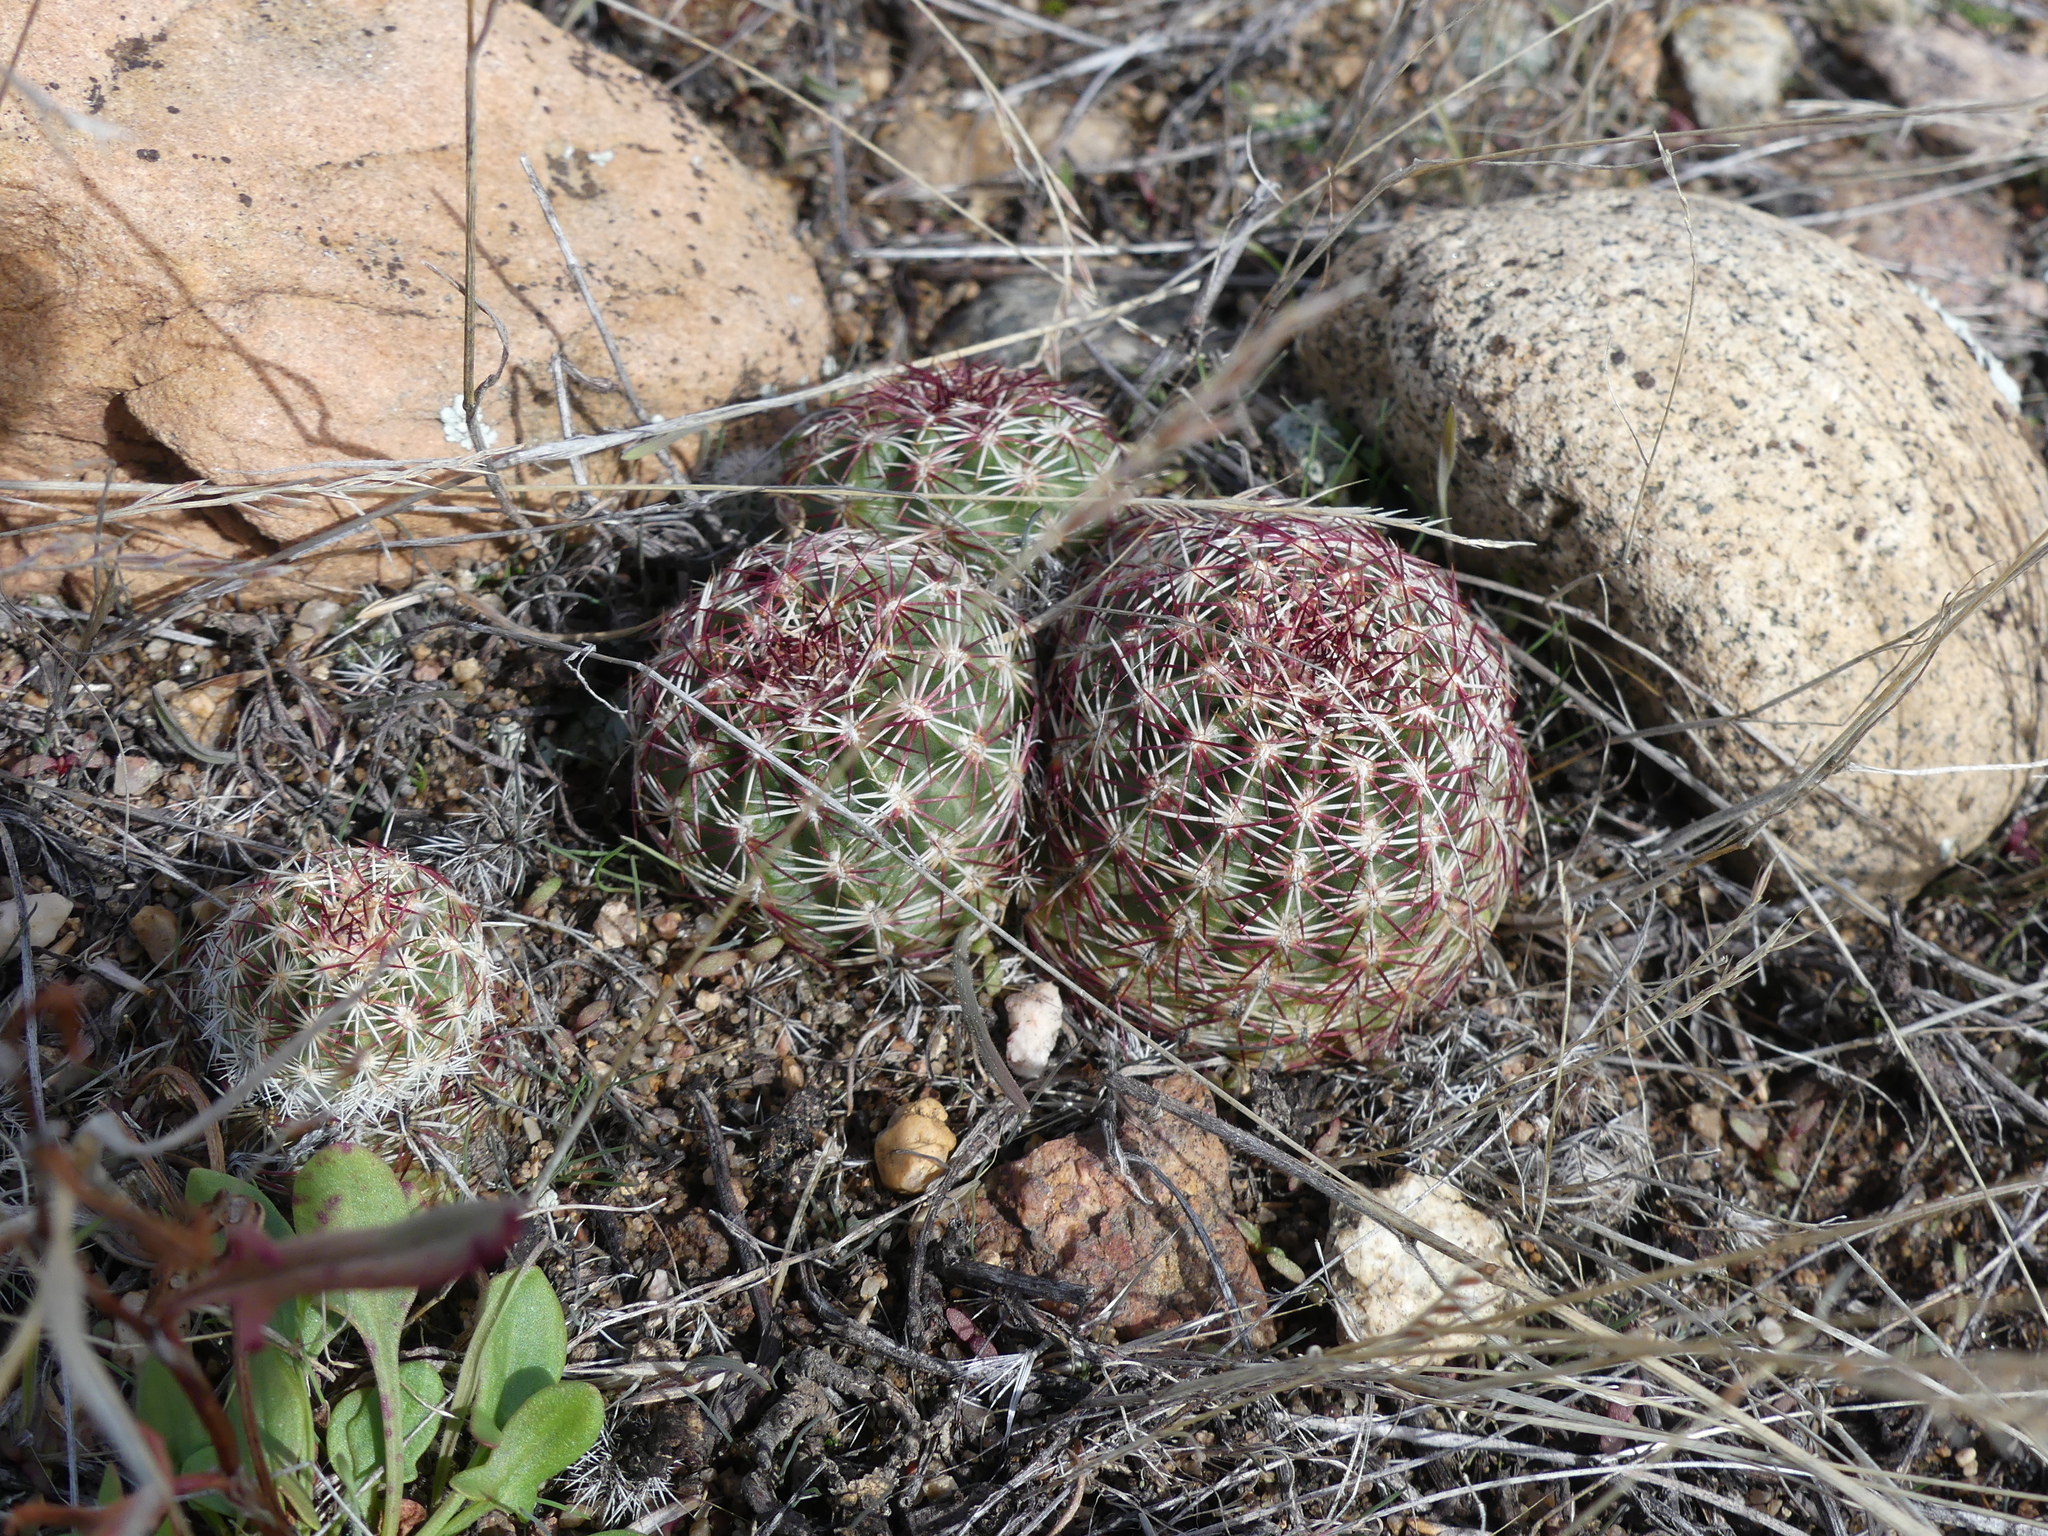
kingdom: Plantae
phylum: Tracheophyta
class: Magnoliopsida
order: Caryophyllales
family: Cactaceae
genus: Echinocereus
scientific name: Echinocereus viridiflorus
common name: Nylon hedgehog cactus
